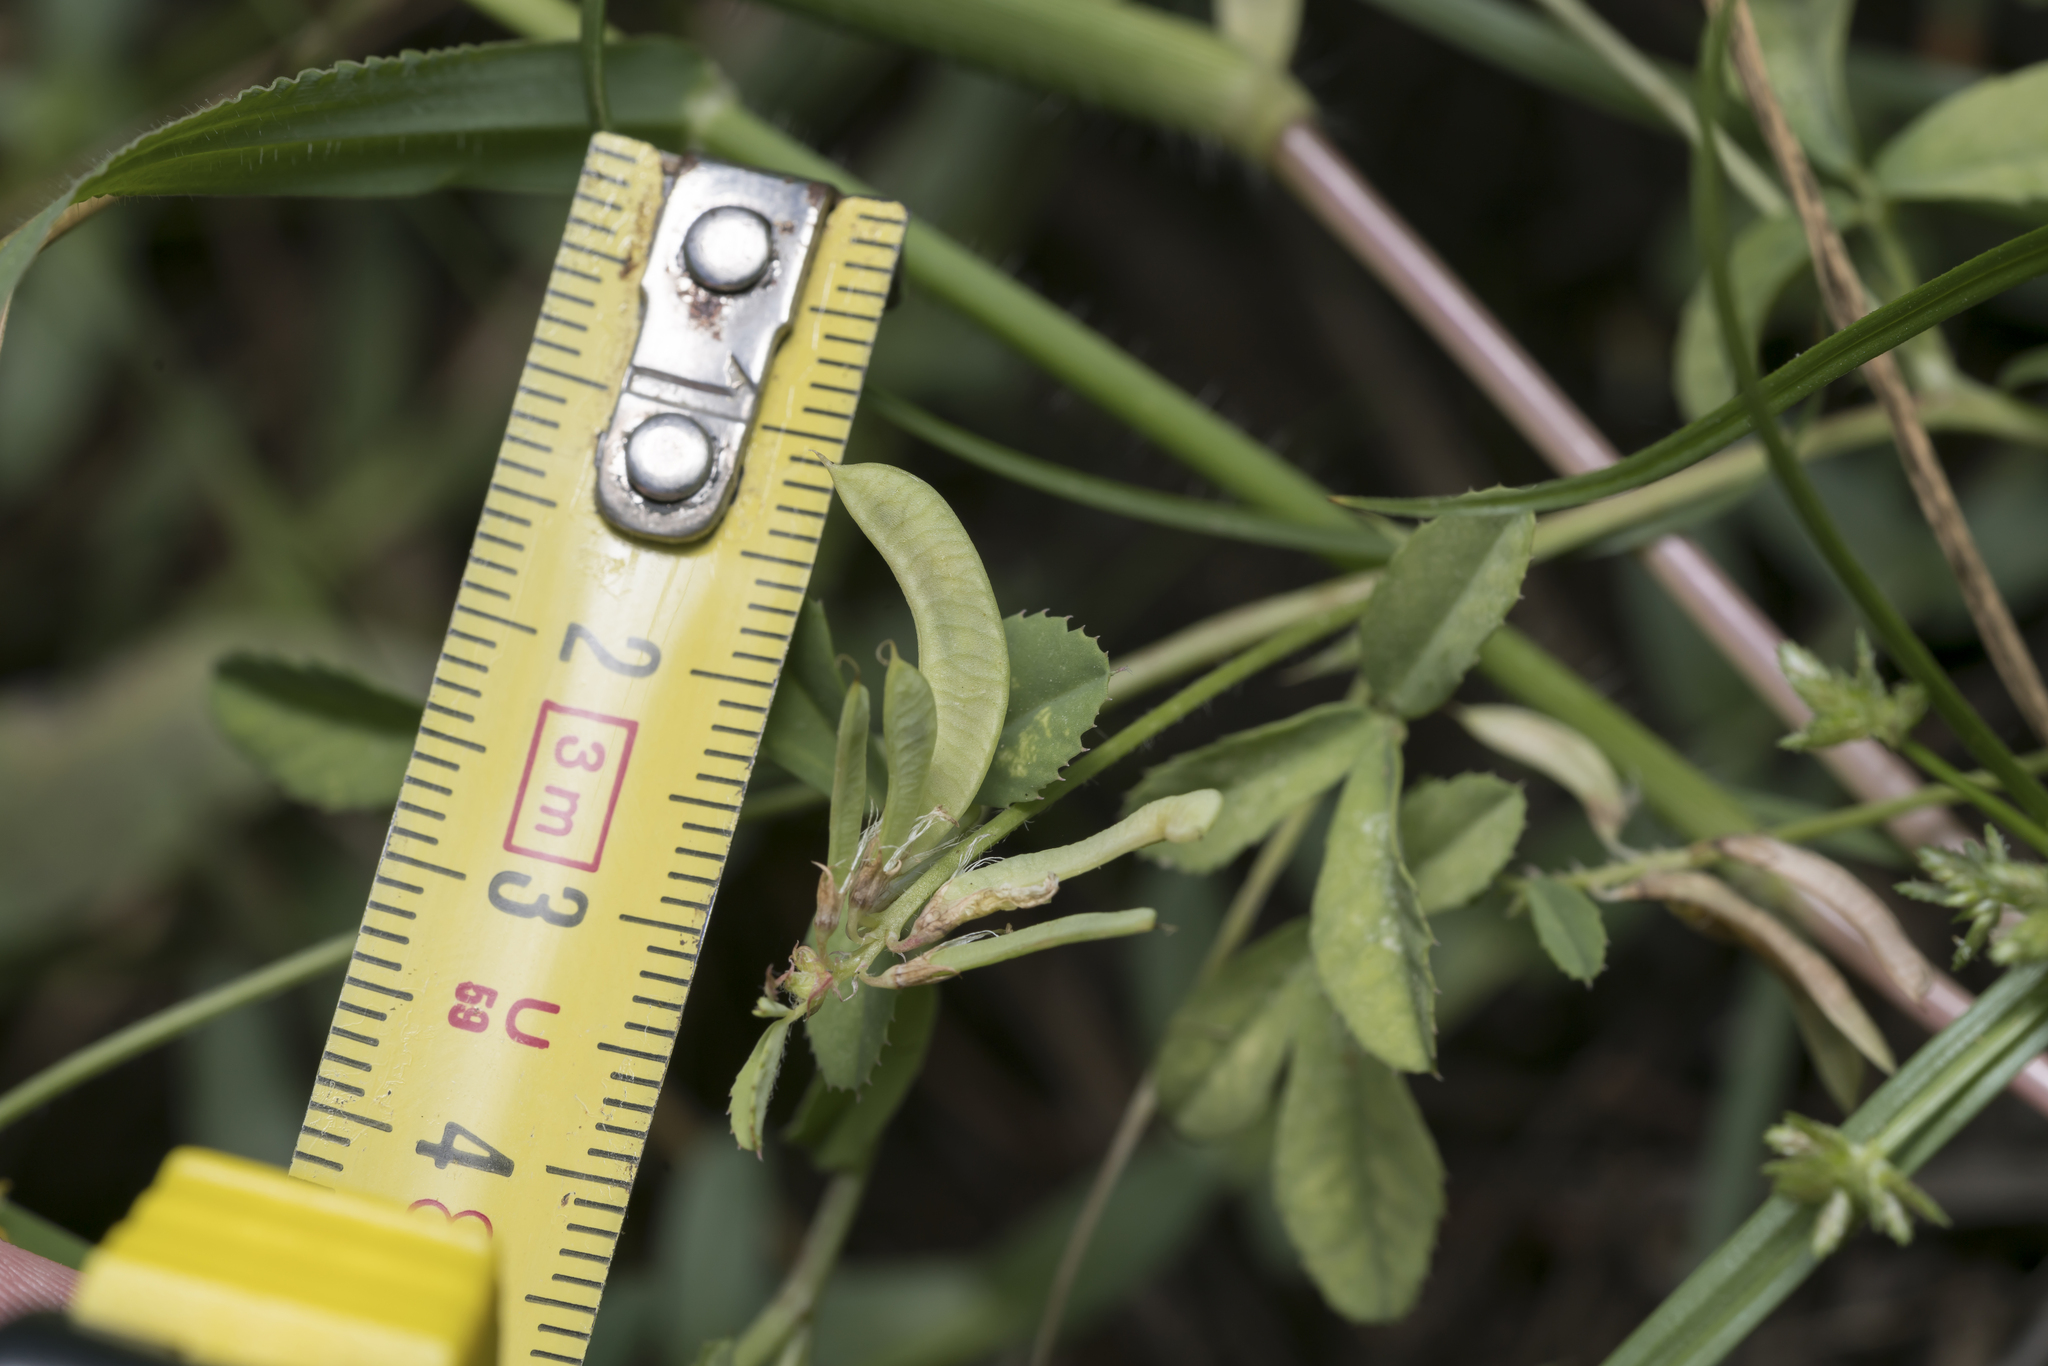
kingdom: Plantae
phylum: Tracheophyta
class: Magnoliopsida
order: Fabales
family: Fabaceae
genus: Trigonella
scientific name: Trigonella balansae
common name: Sickle-fruited fenugreek
